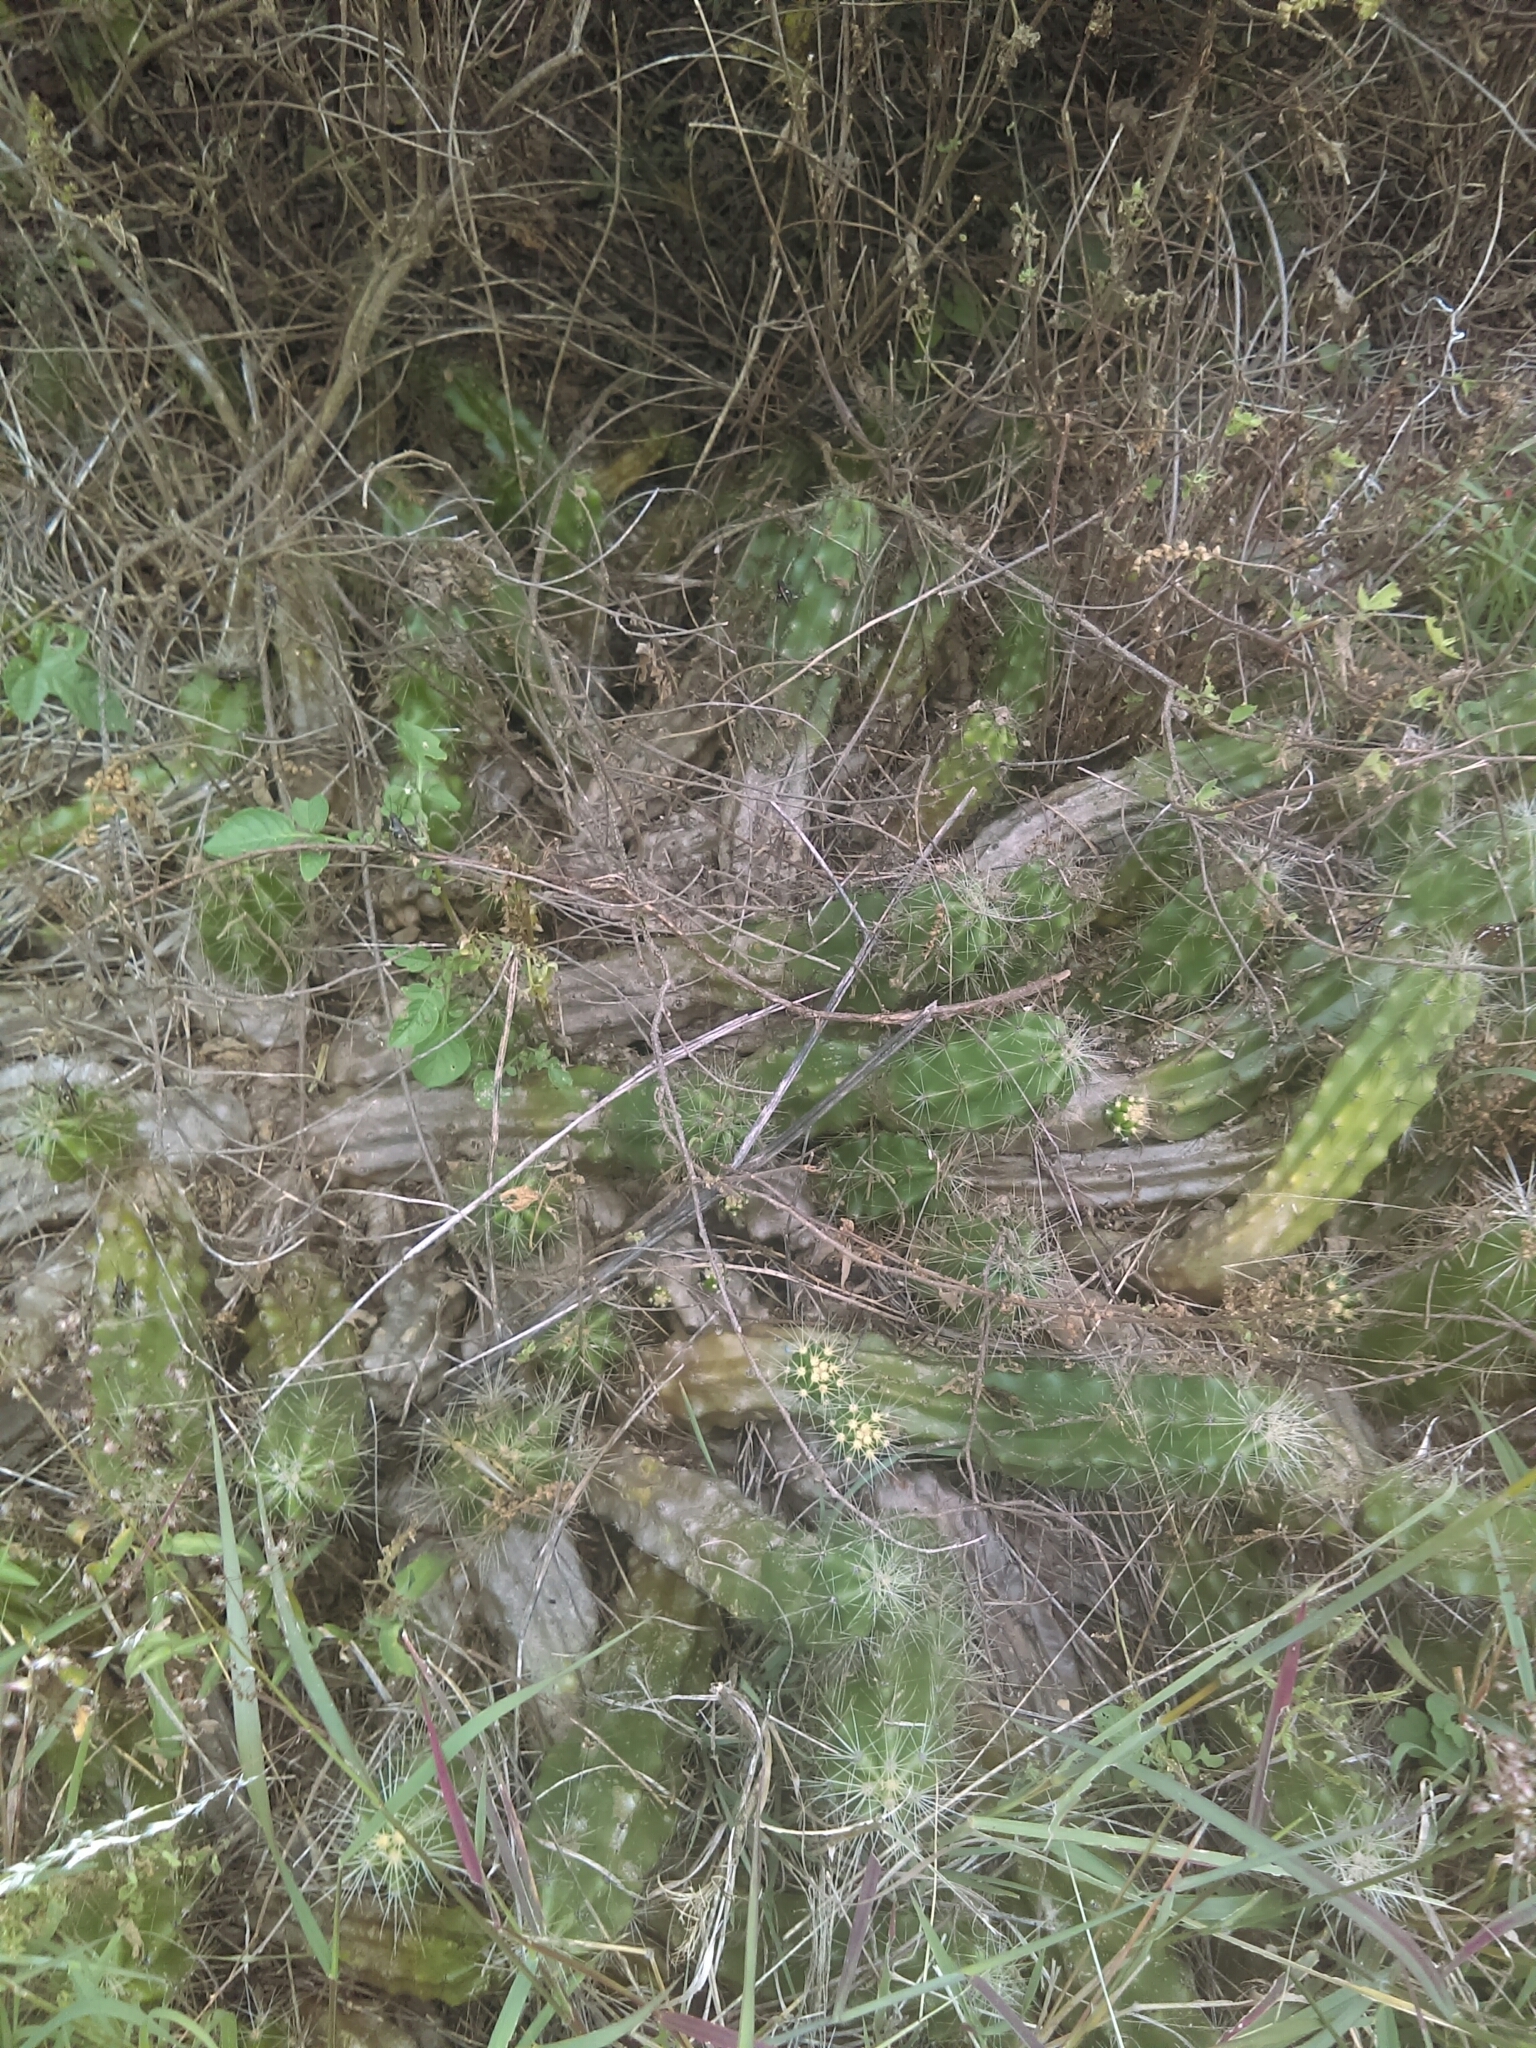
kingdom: Plantae
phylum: Tracheophyta
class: Magnoliopsida
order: Caryophyllales
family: Cactaceae
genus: Echinocereus
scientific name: Echinocereus cinerascens
